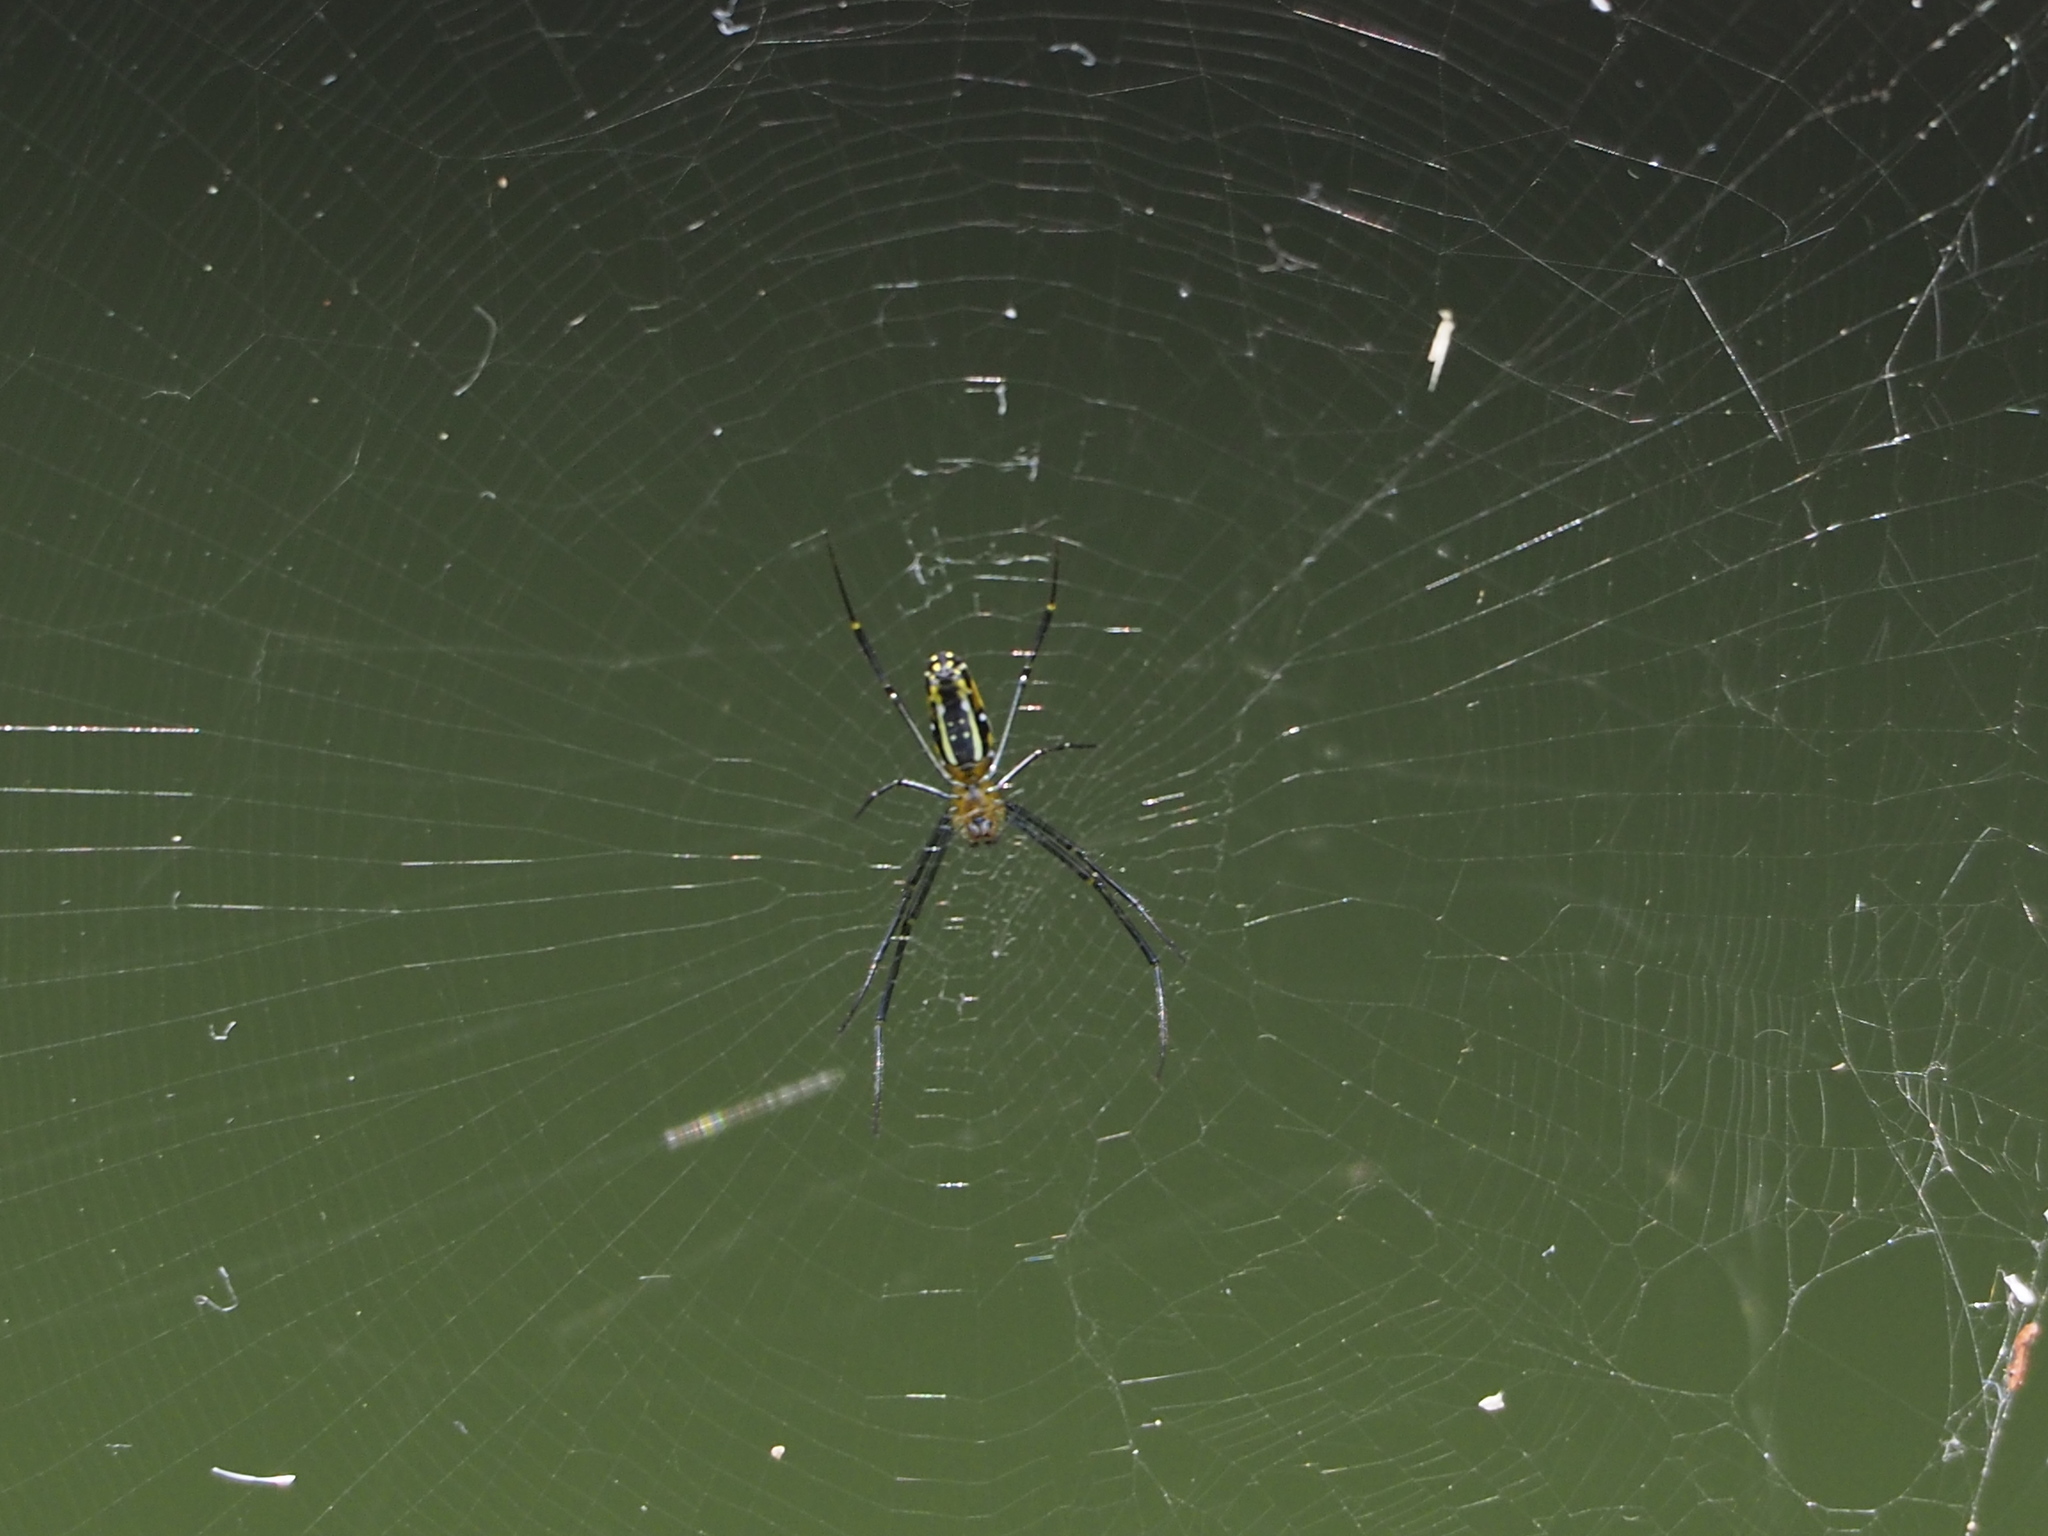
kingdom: Animalia
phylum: Arthropoda
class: Arachnida
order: Araneae
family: Araneidae
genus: Nephila
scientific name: Nephila pilipes
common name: Giant golden orb weaver
